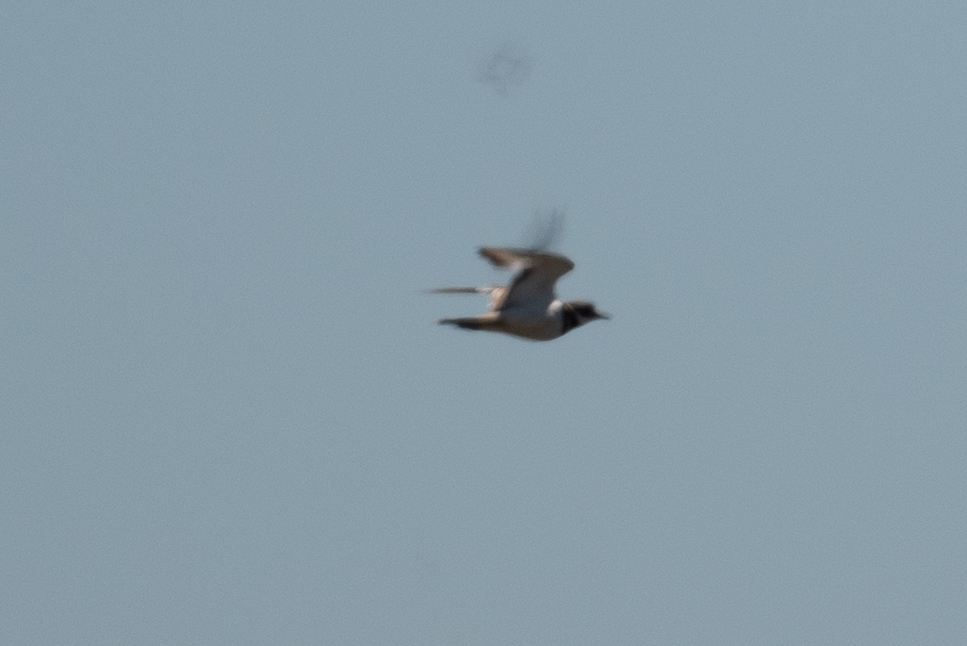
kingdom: Animalia
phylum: Chordata
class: Aves
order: Charadriiformes
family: Charadriidae
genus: Charadrius
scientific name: Charadrius vociferus
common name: Killdeer
